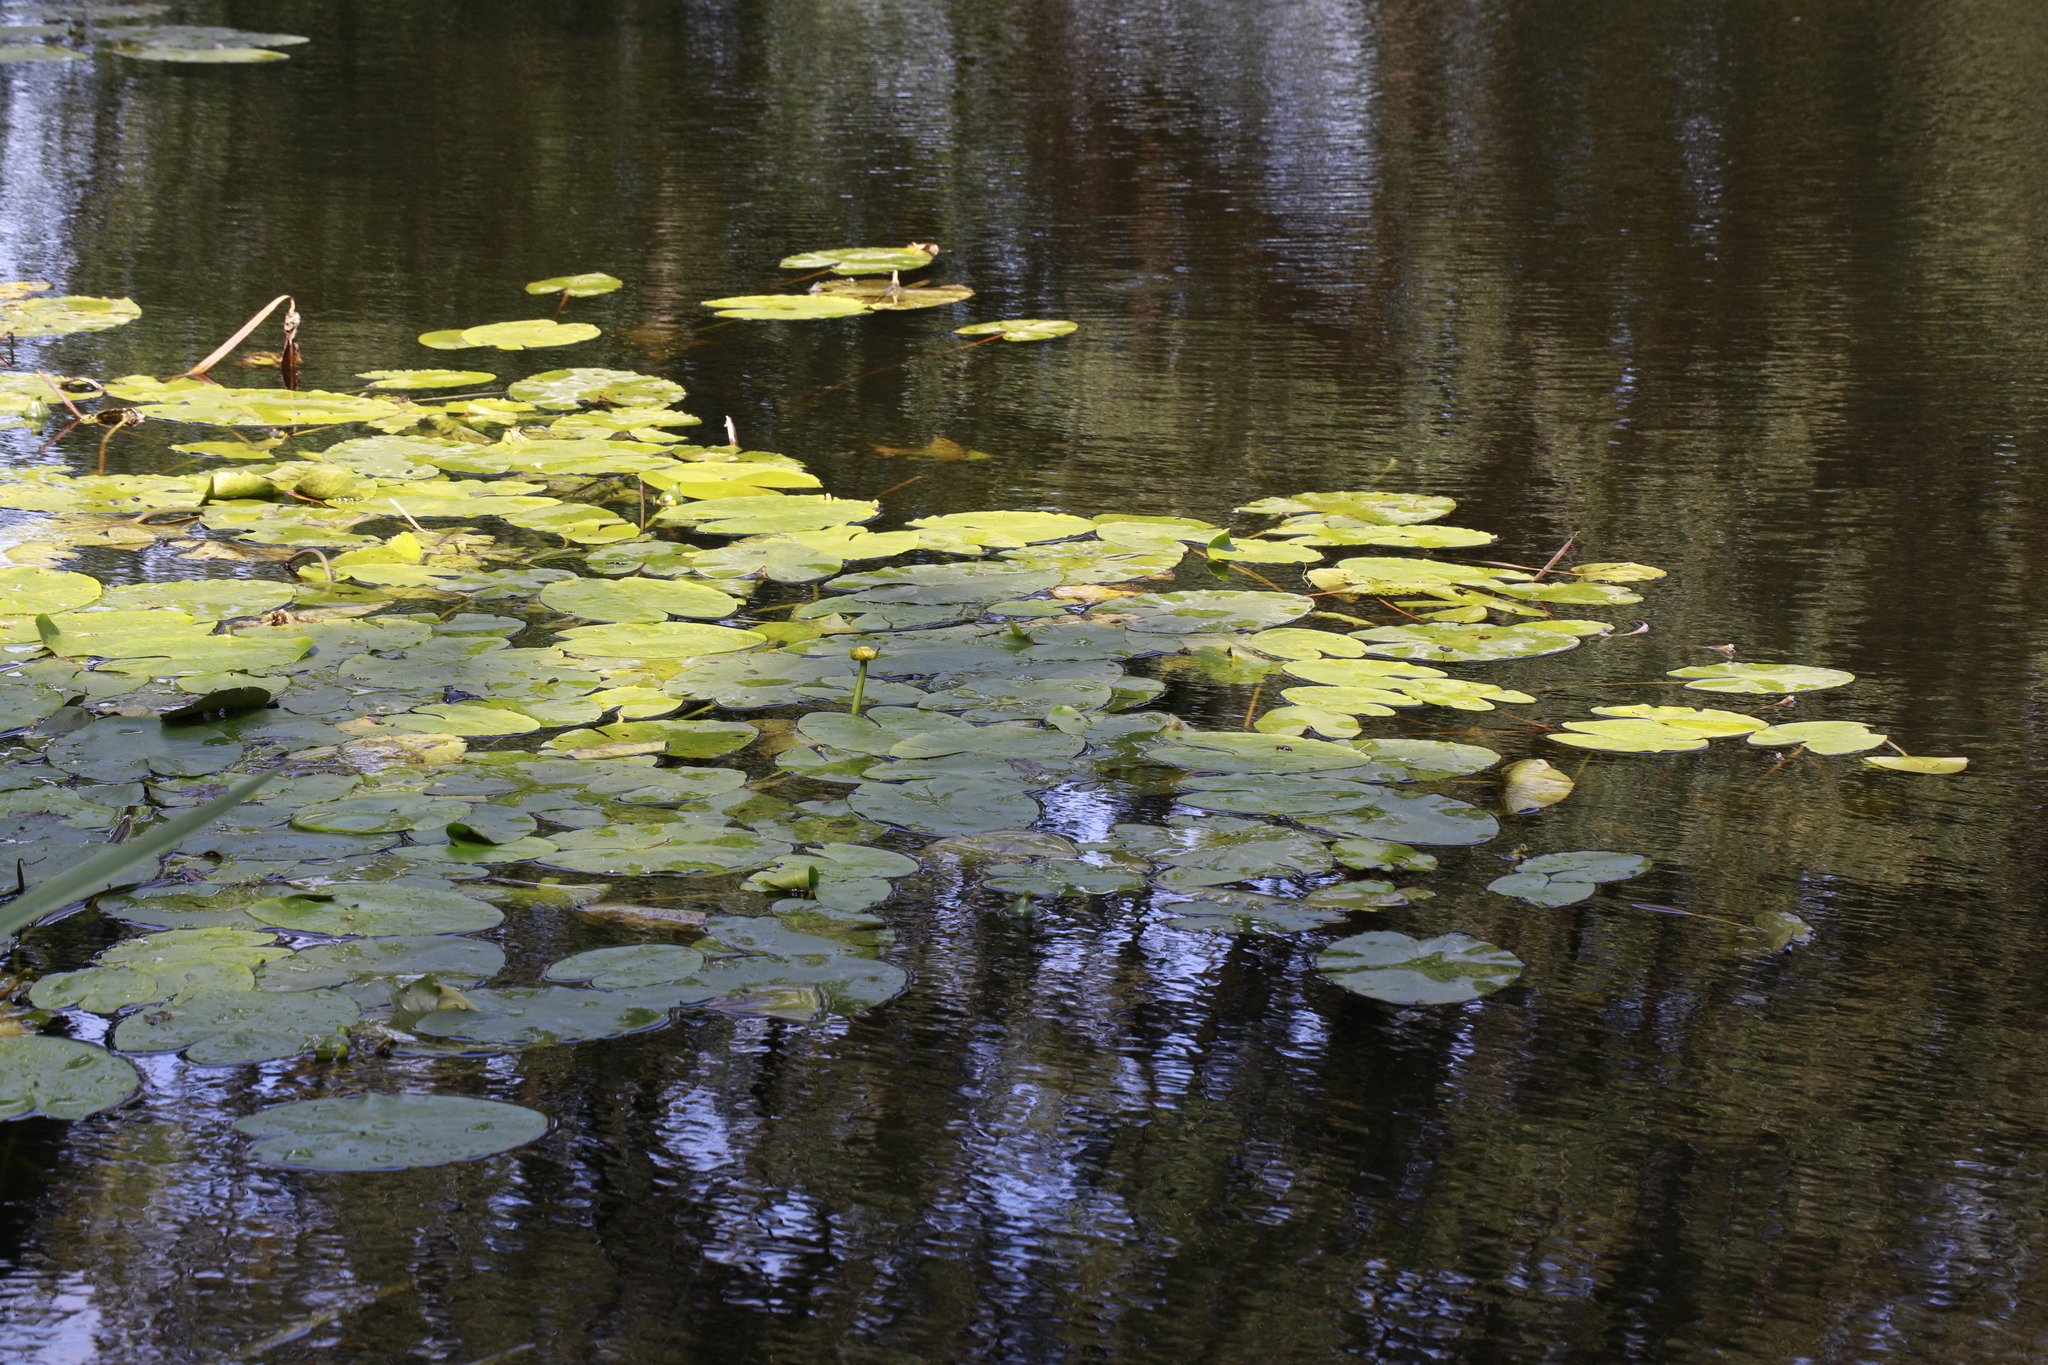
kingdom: Plantae
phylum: Tracheophyta
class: Magnoliopsida
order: Nymphaeales
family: Nymphaeaceae
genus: Nuphar
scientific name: Nuphar lutea
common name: Yellow water-lily
